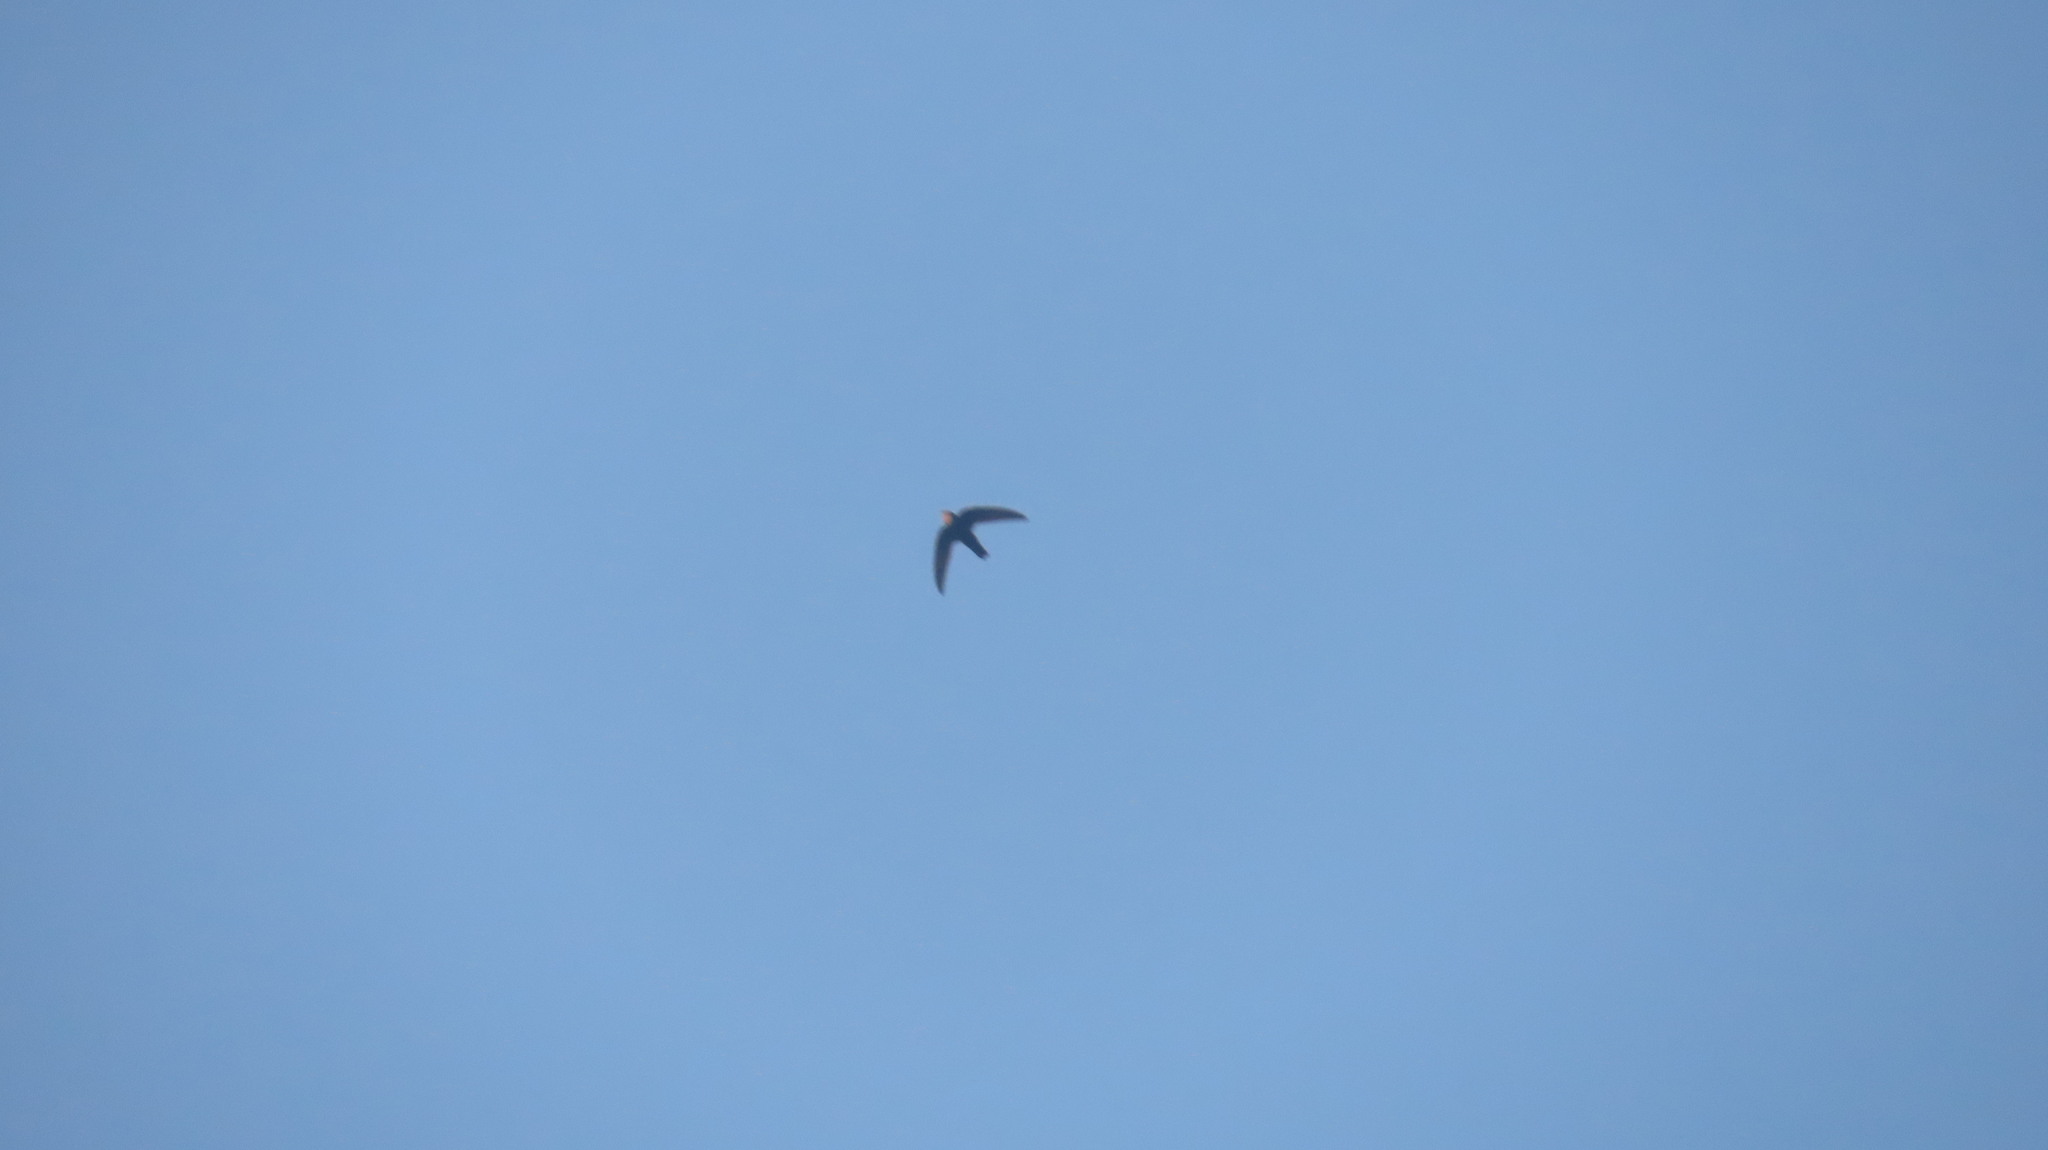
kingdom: Animalia
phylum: Chordata
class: Aves
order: Apodiformes
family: Apodidae
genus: Apus
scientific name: Apus affinis
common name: Little swift
